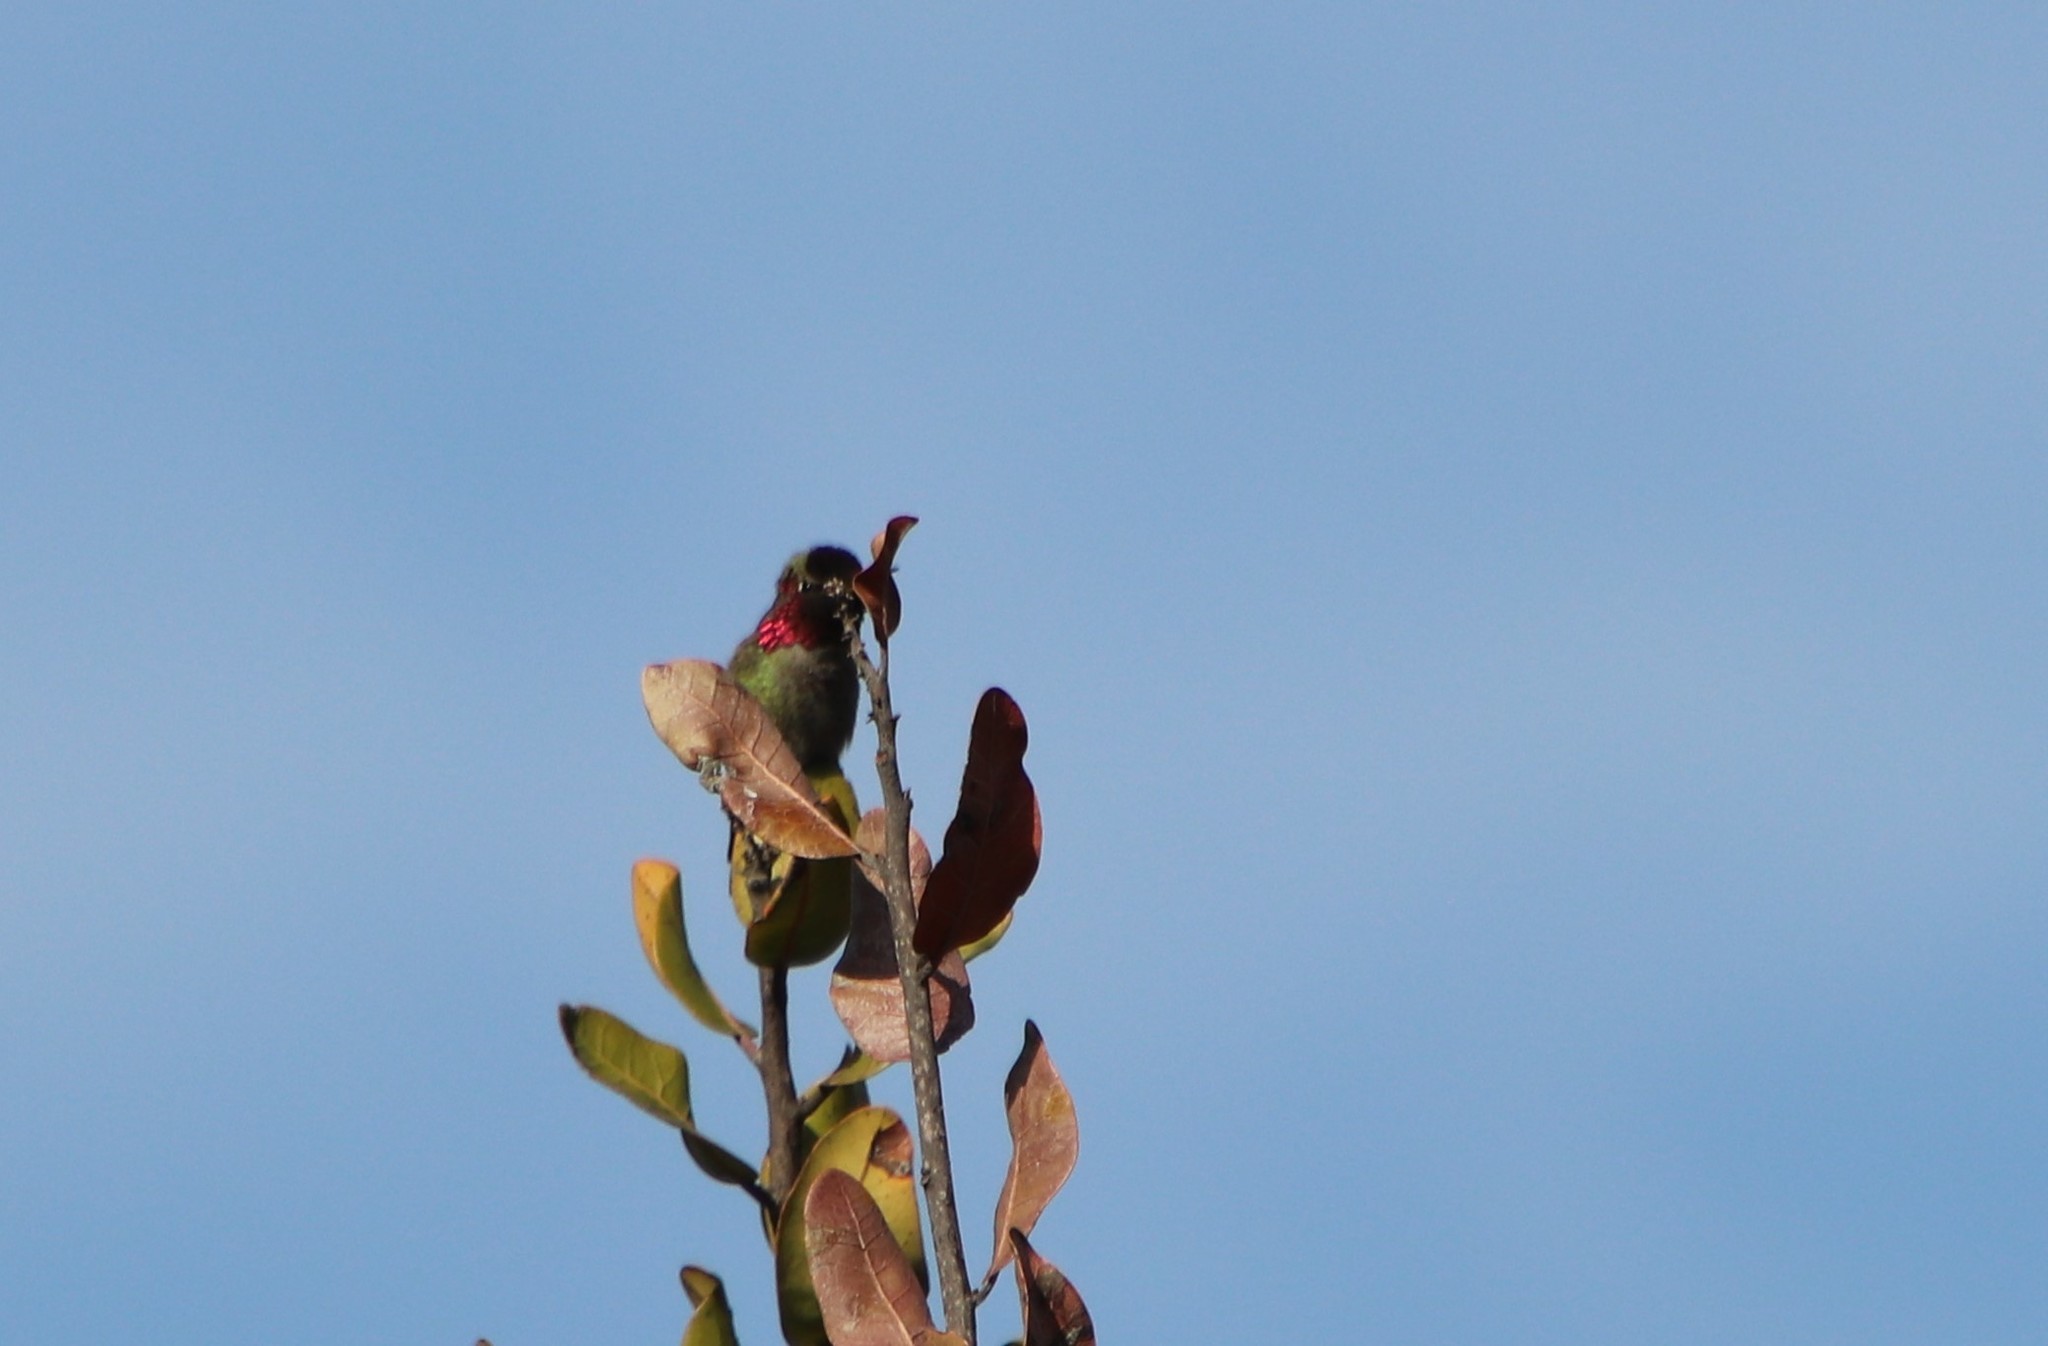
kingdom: Animalia
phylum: Chordata
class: Aves
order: Apodiformes
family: Trochilidae
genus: Calypte
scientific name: Calypte anna
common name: Anna's hummingbird
